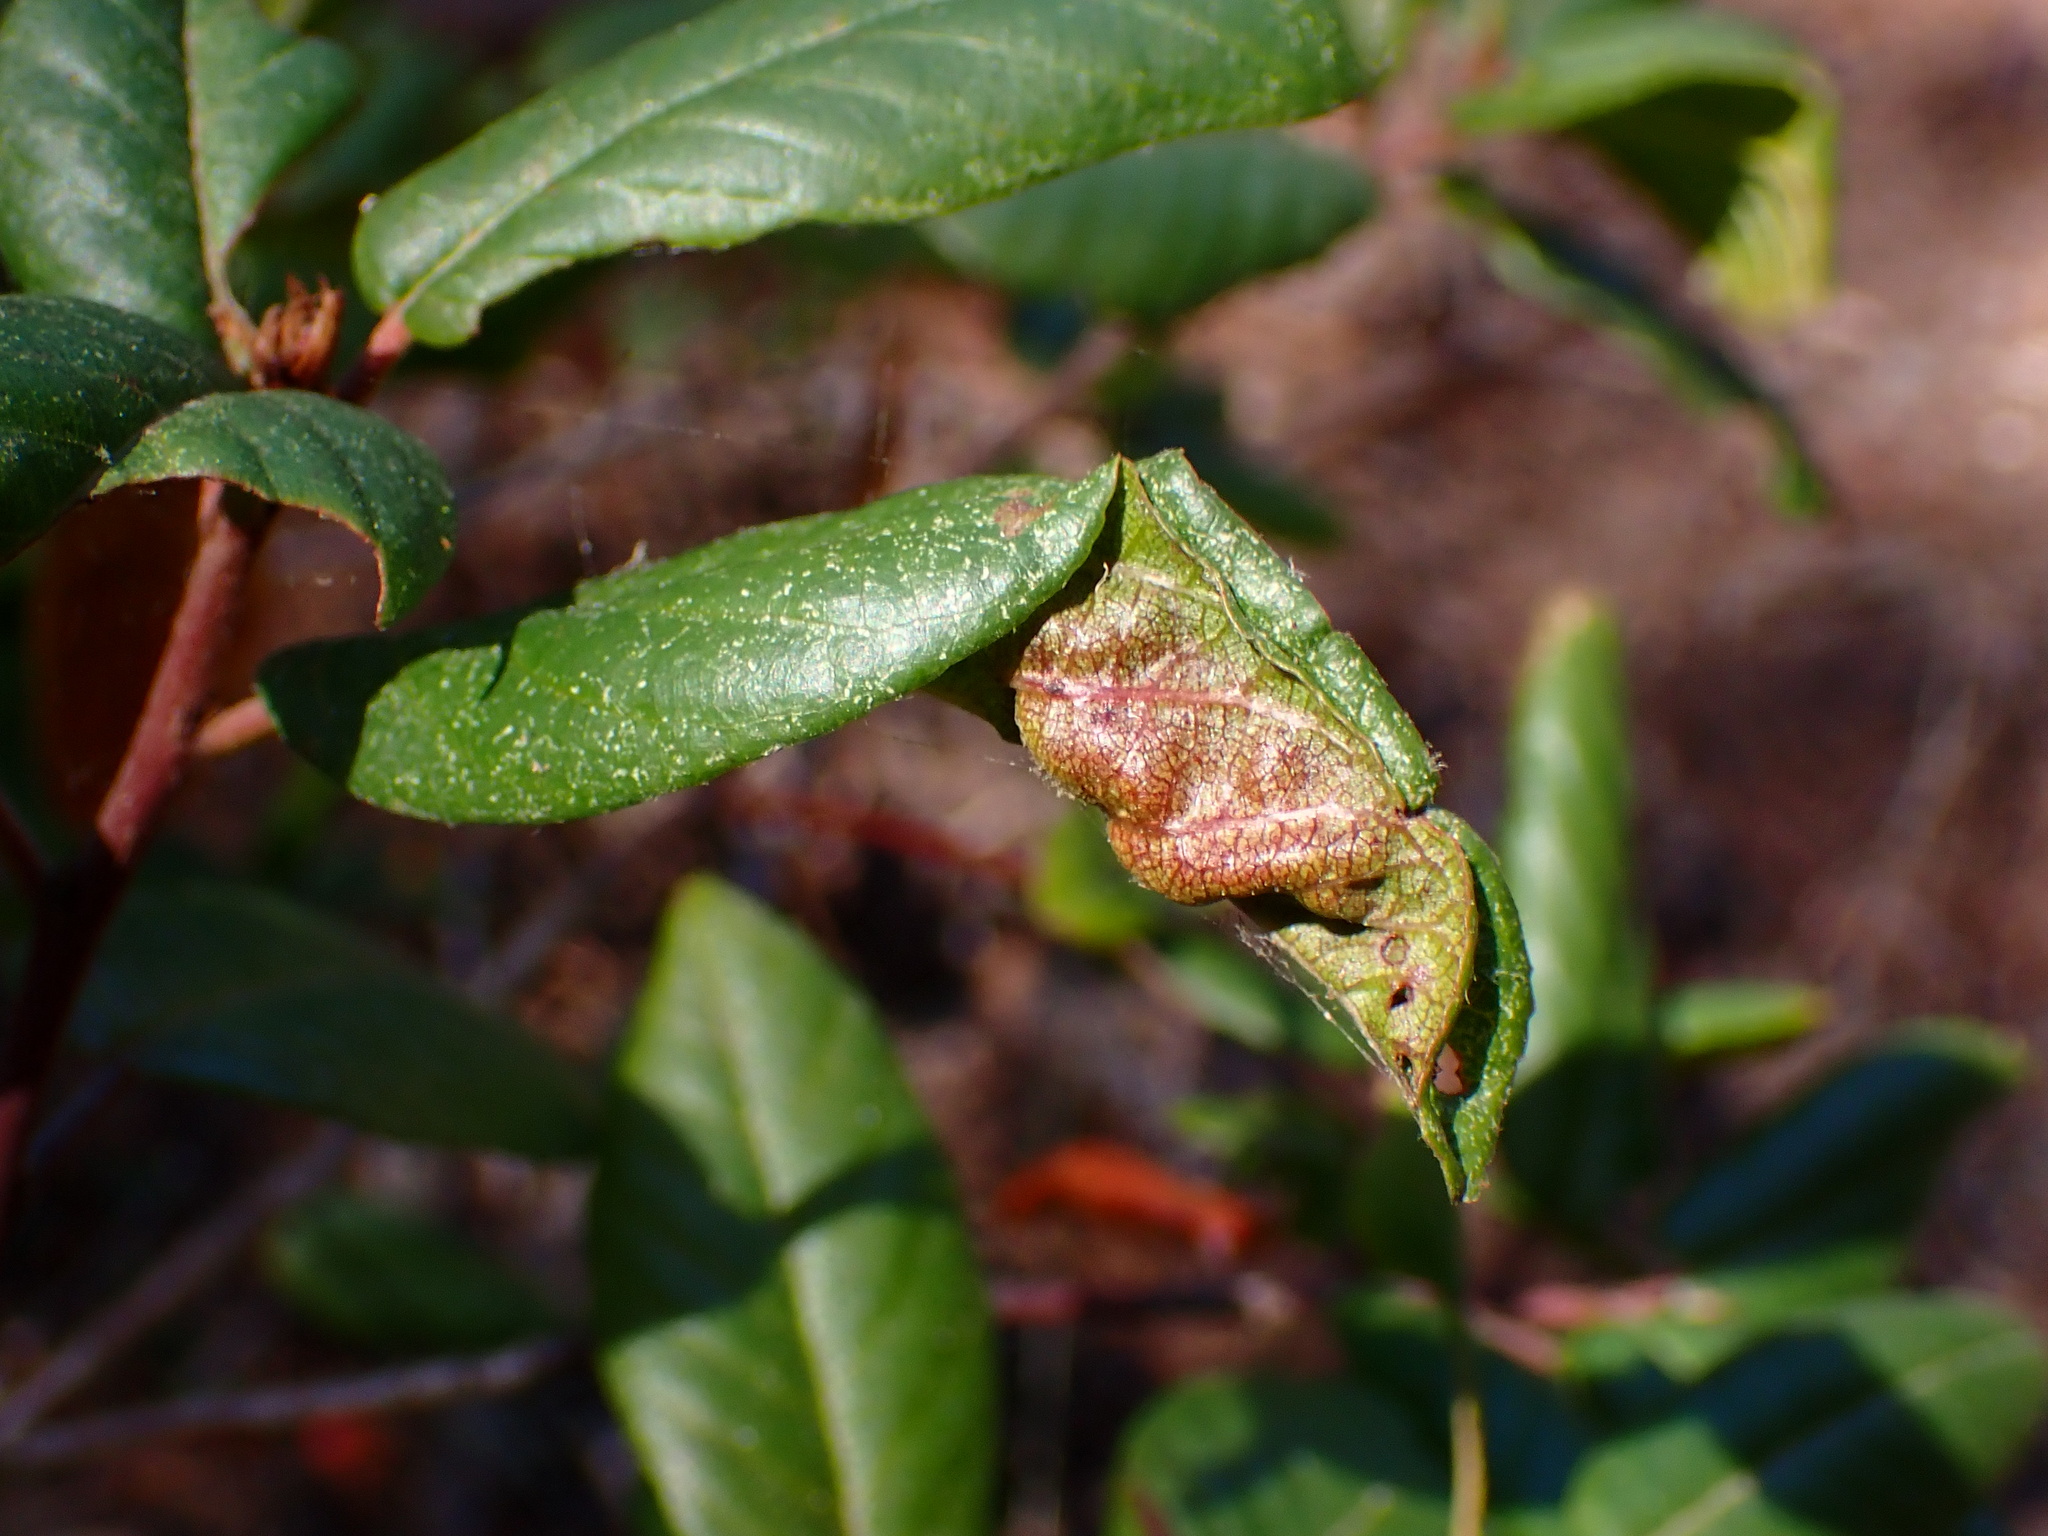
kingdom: Animalia
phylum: Arthropoda
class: Insecta
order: Lepidoptera
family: Cosmopterigidae
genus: Sorhagenia
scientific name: Sorhagenia nimbosus
